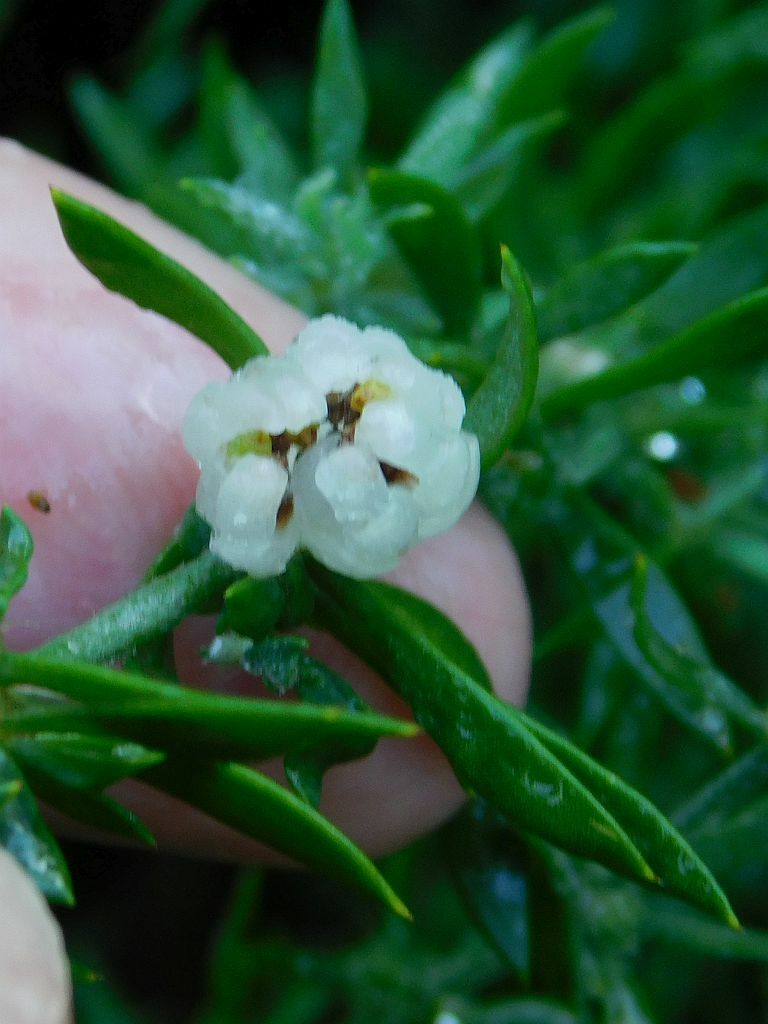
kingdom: Plantae
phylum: Tracheophyta
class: Magnoliopsida
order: Caryophyllales
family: Caryophyllaceae
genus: Pollichia
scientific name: Pollichia campestris
